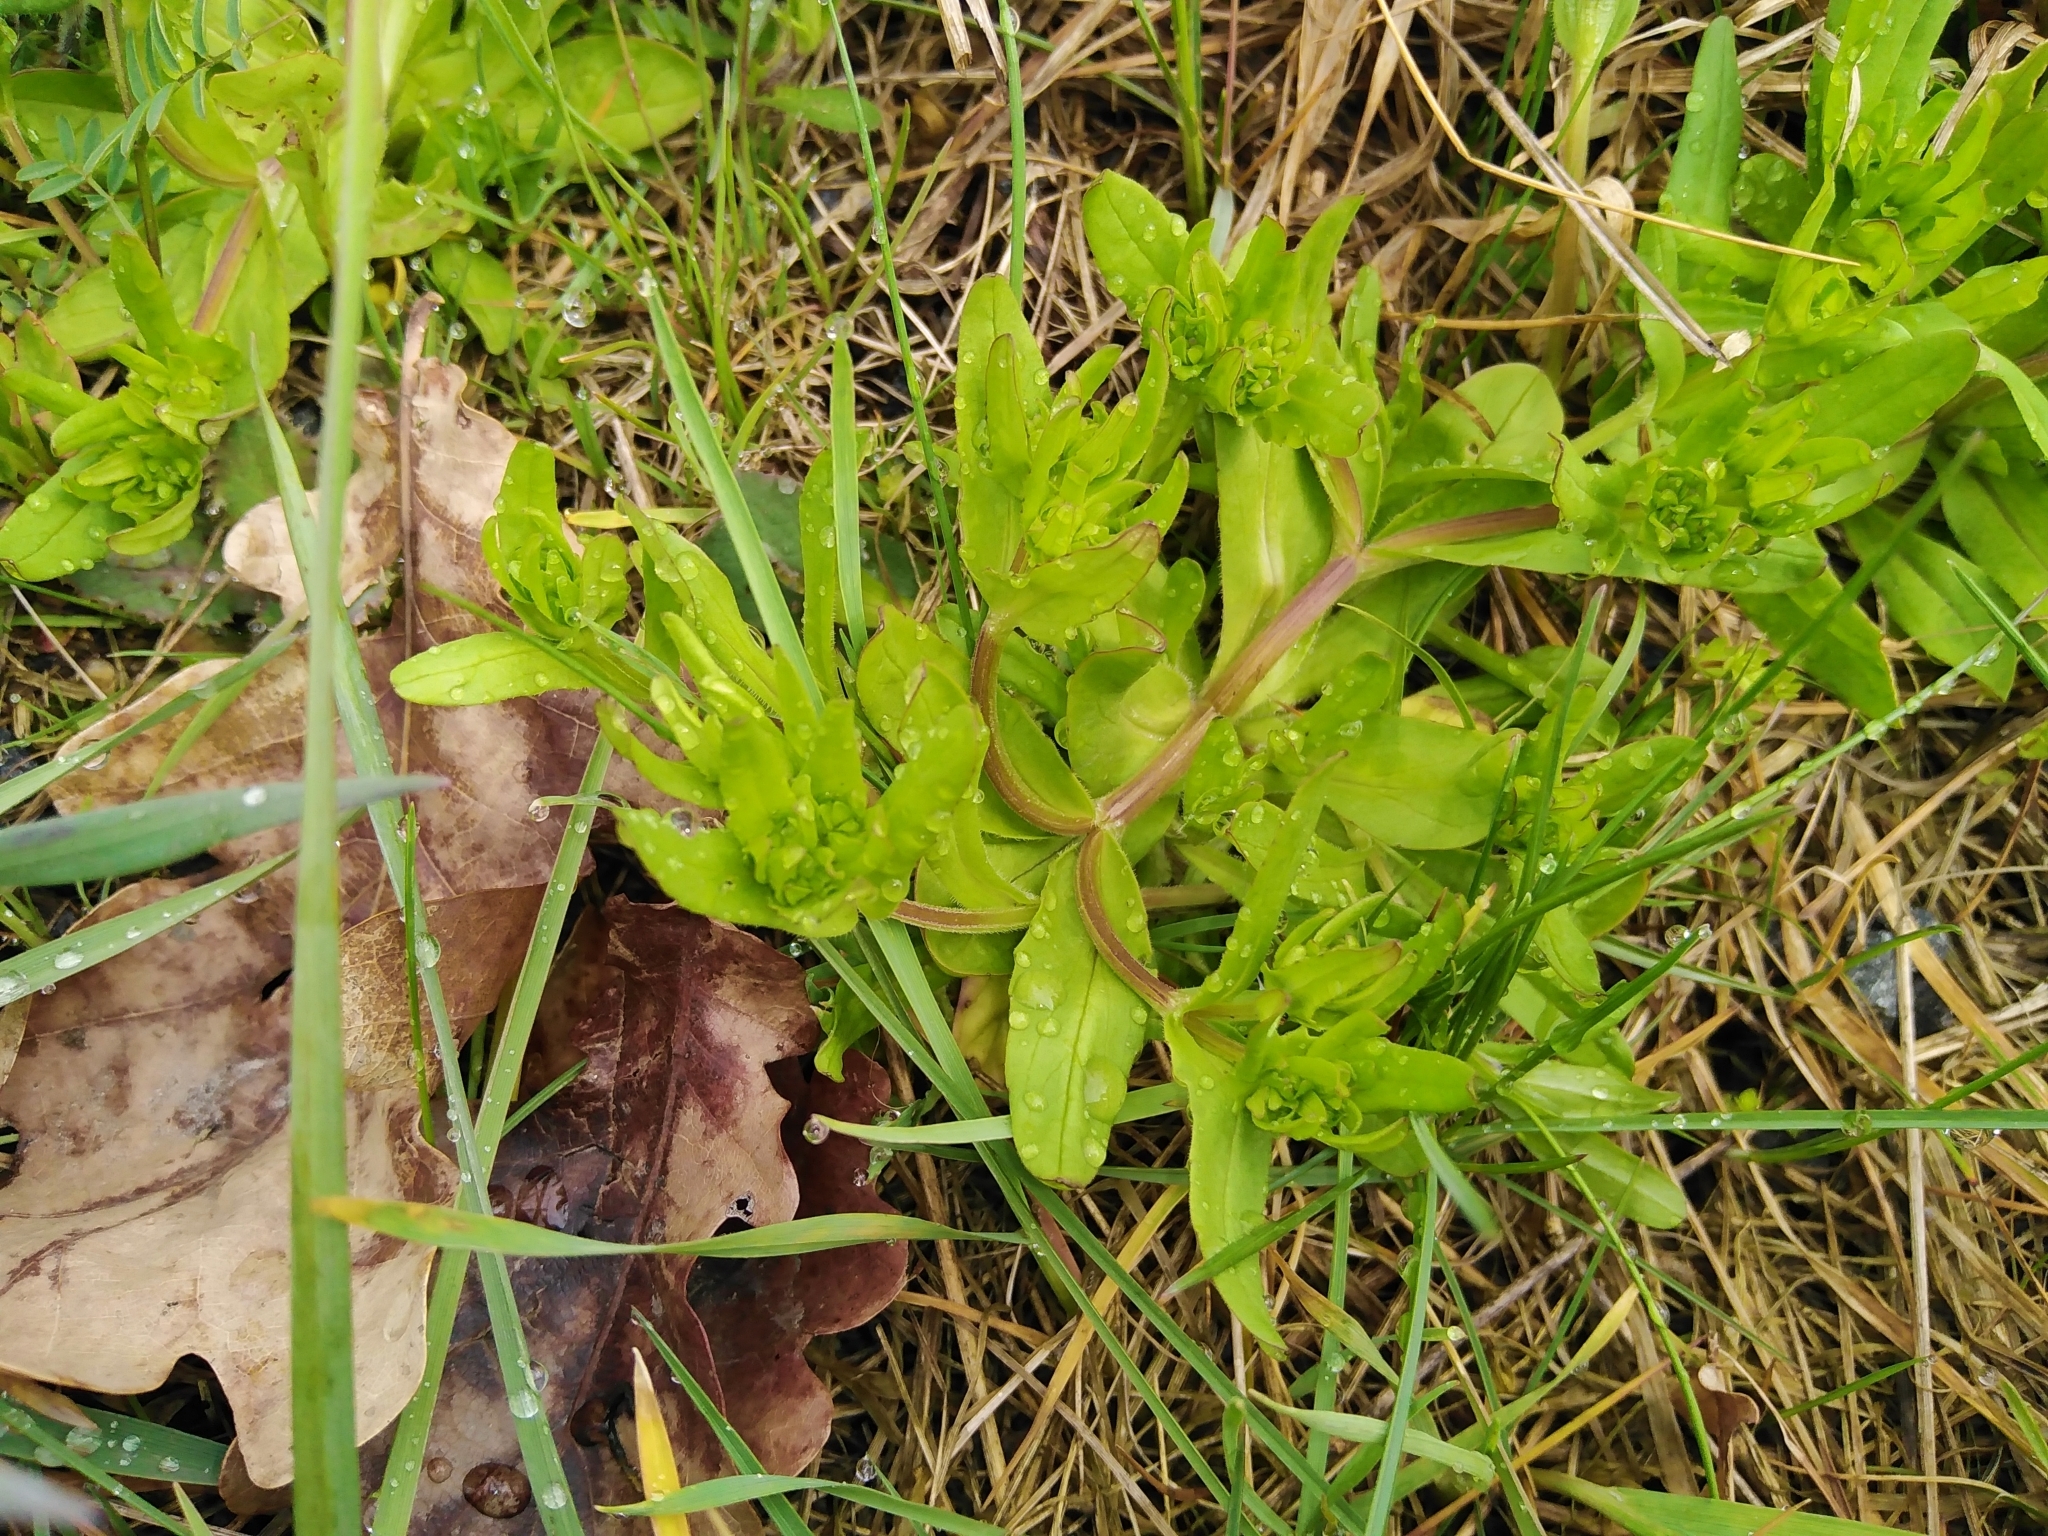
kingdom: Plantae
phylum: Tracheophyta
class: Magnoliopsida
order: Dipsacales
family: Caprifoliaceae
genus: Valerianella
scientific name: Valerianella locusta
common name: Common cornsalad
